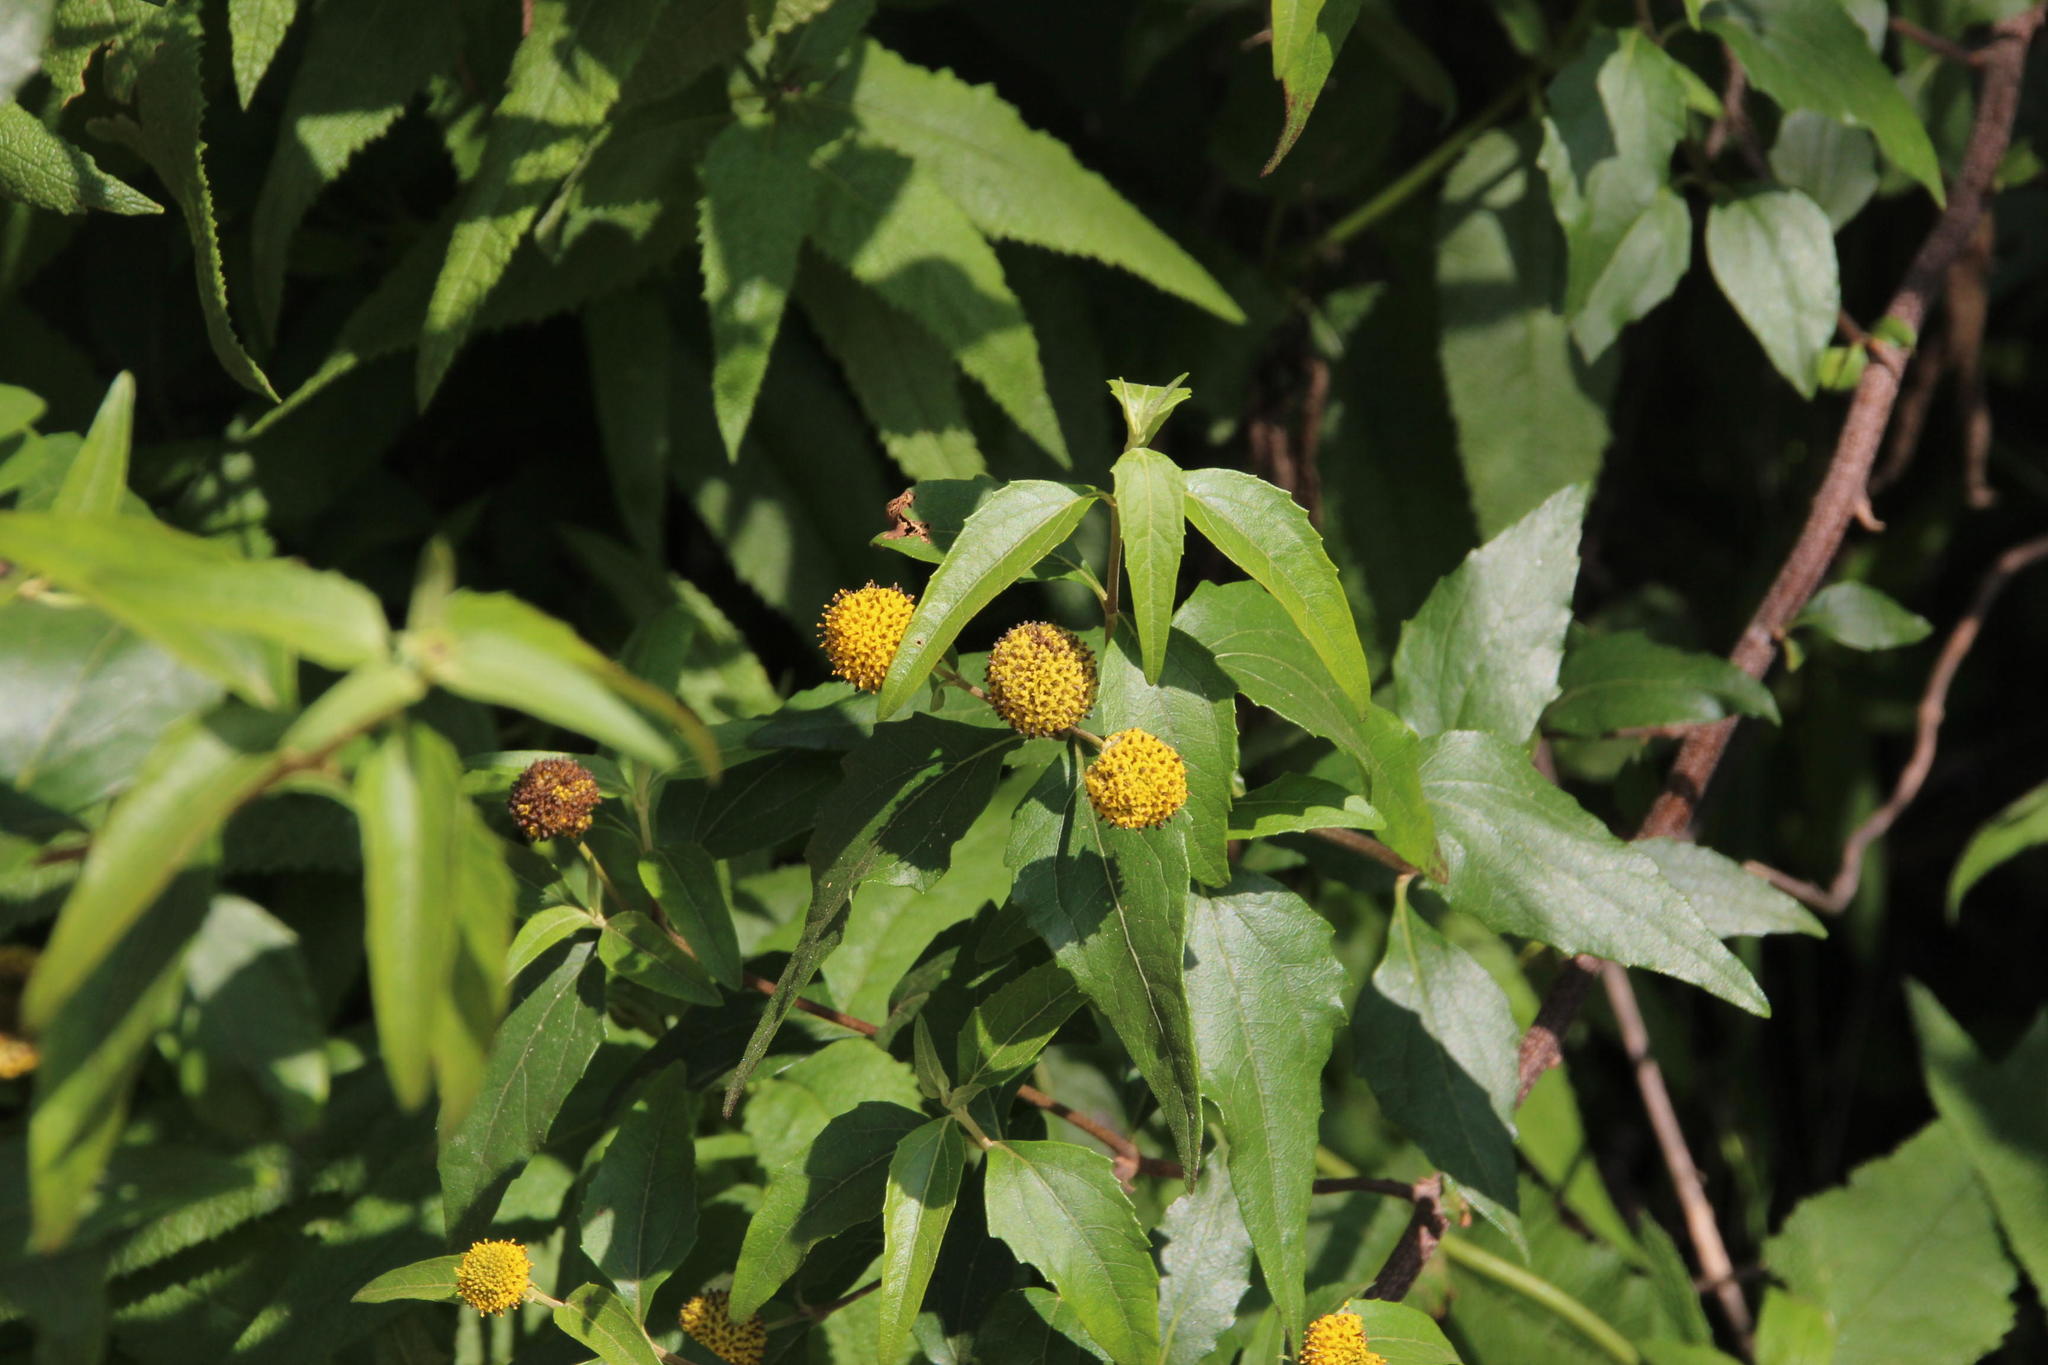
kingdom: Plantae
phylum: Tracheophyta
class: Magnoliopsida
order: Asterales
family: Asteraceae
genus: Podanthus
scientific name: Podanthus mitiqui
